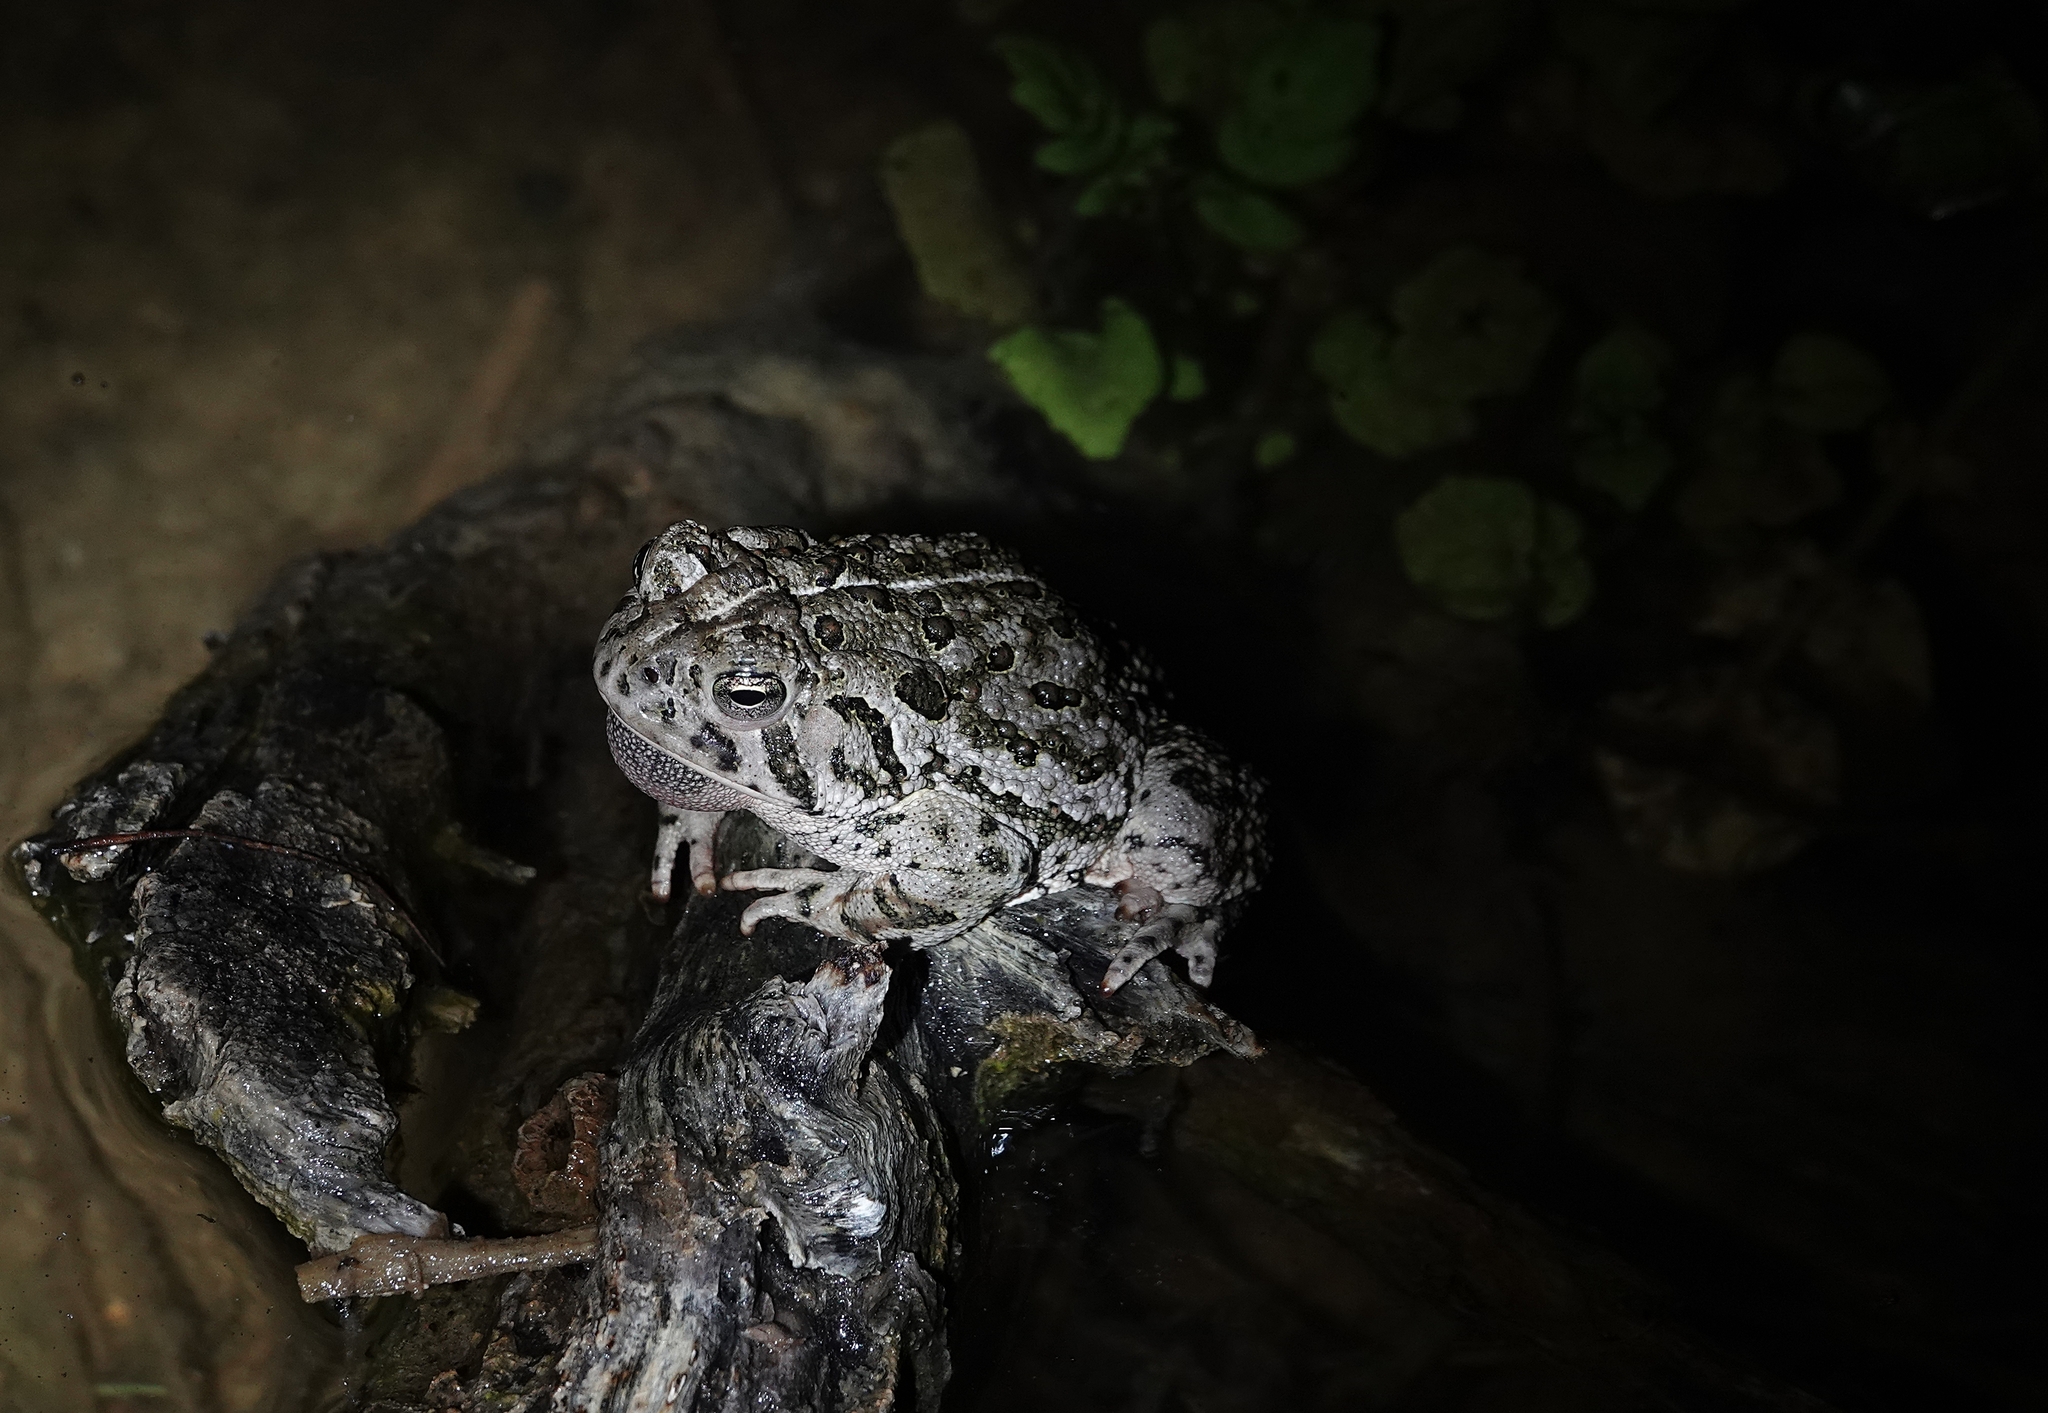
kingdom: Animalia
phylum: Chordata
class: Amphibia
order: Anura
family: Bufonidae
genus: Anaxyrus
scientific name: Anaxyrus woodhousii
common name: Woodhouse's toad
